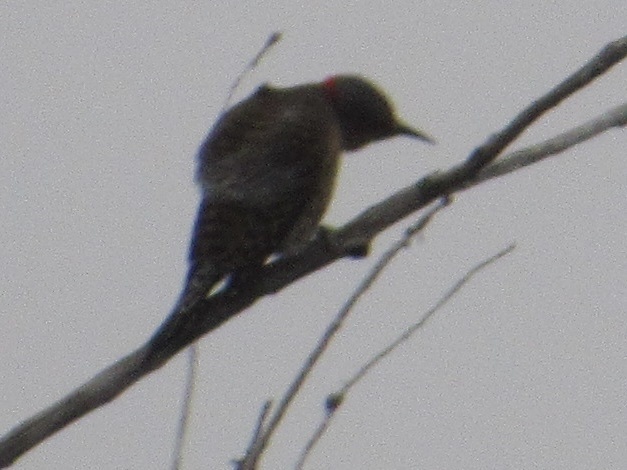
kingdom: Animalia
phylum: Chordata
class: Aves
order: Piciformes
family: Picidae
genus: Colaptes
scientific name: Colaptes auratus
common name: Northern flicker
